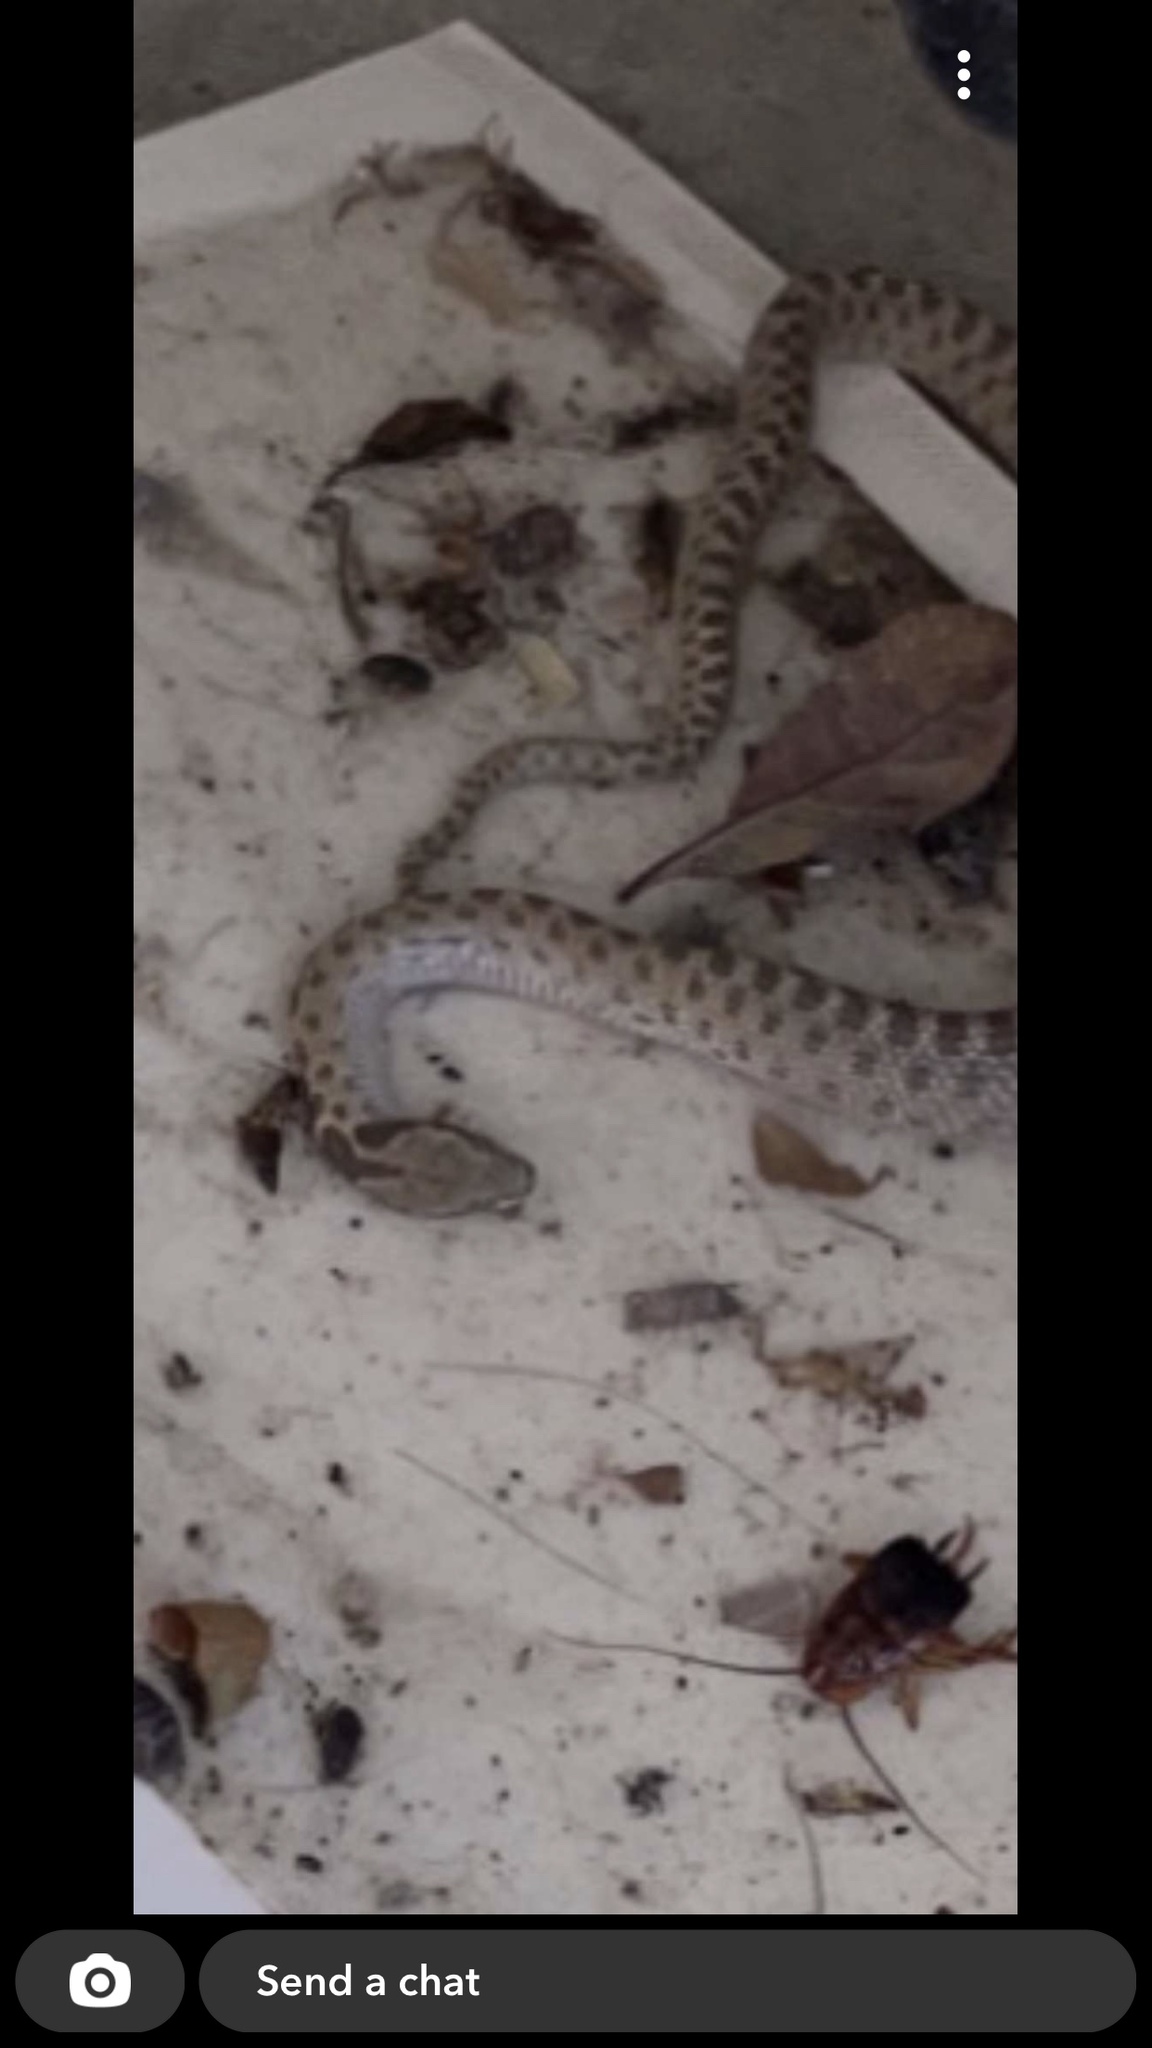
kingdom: Animalia
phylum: Chordata
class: Squamata
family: Colubridae
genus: Hypsiglena
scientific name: Hypsiglena chlorophaea
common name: Desert nightsnake
